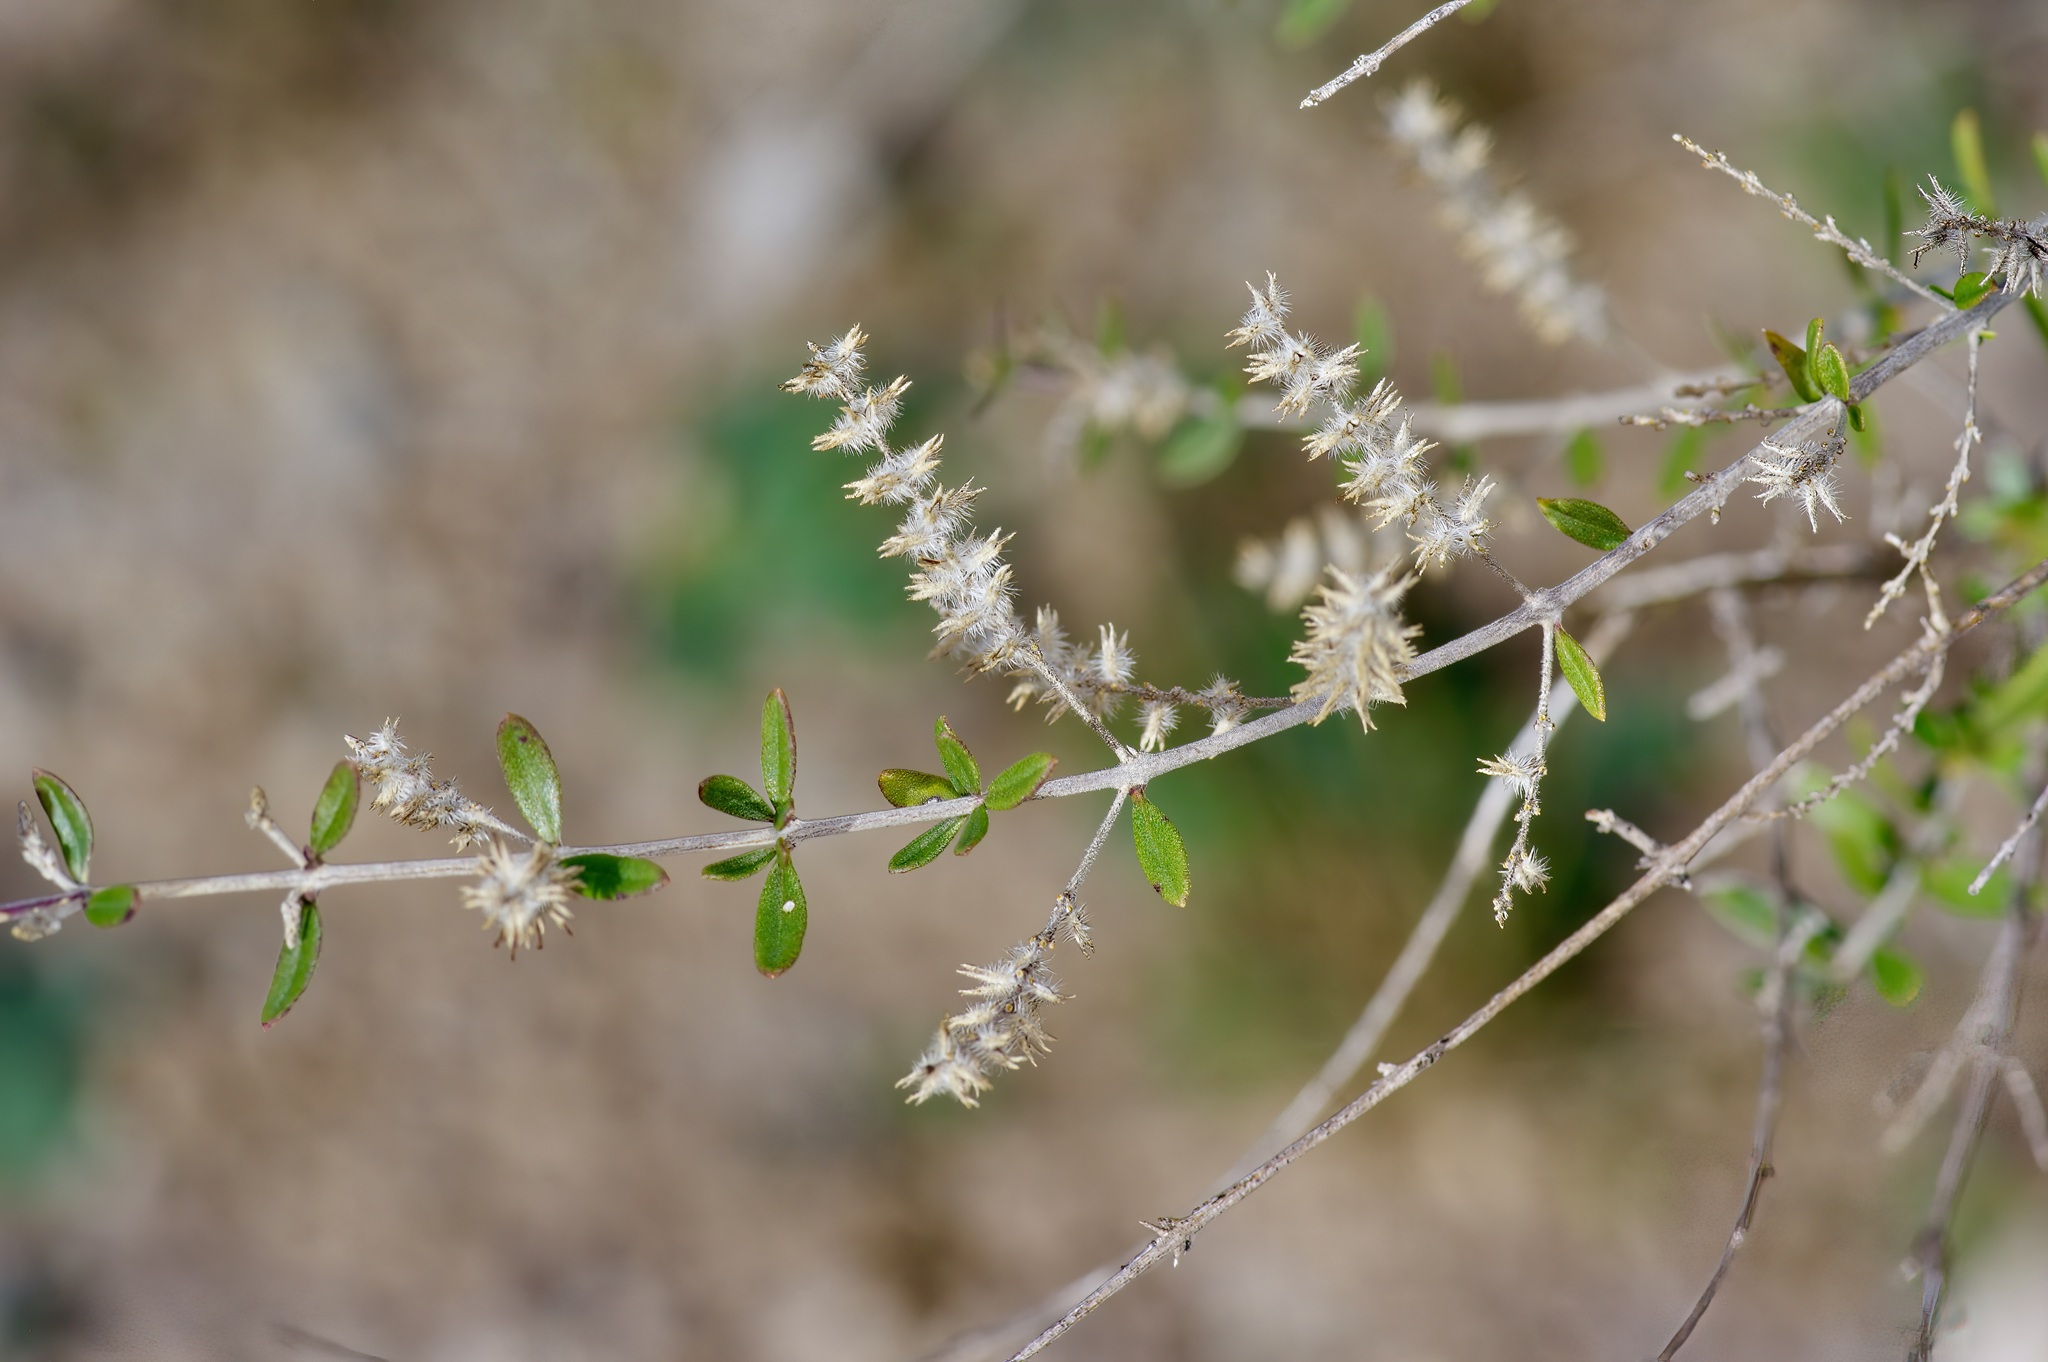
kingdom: Plantae
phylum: Tracheophyta
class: Magnoliopsida
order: Lamiales
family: Verbenaceae
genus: Aloysia
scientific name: Aloysia gratissima
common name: Common bee-brush
